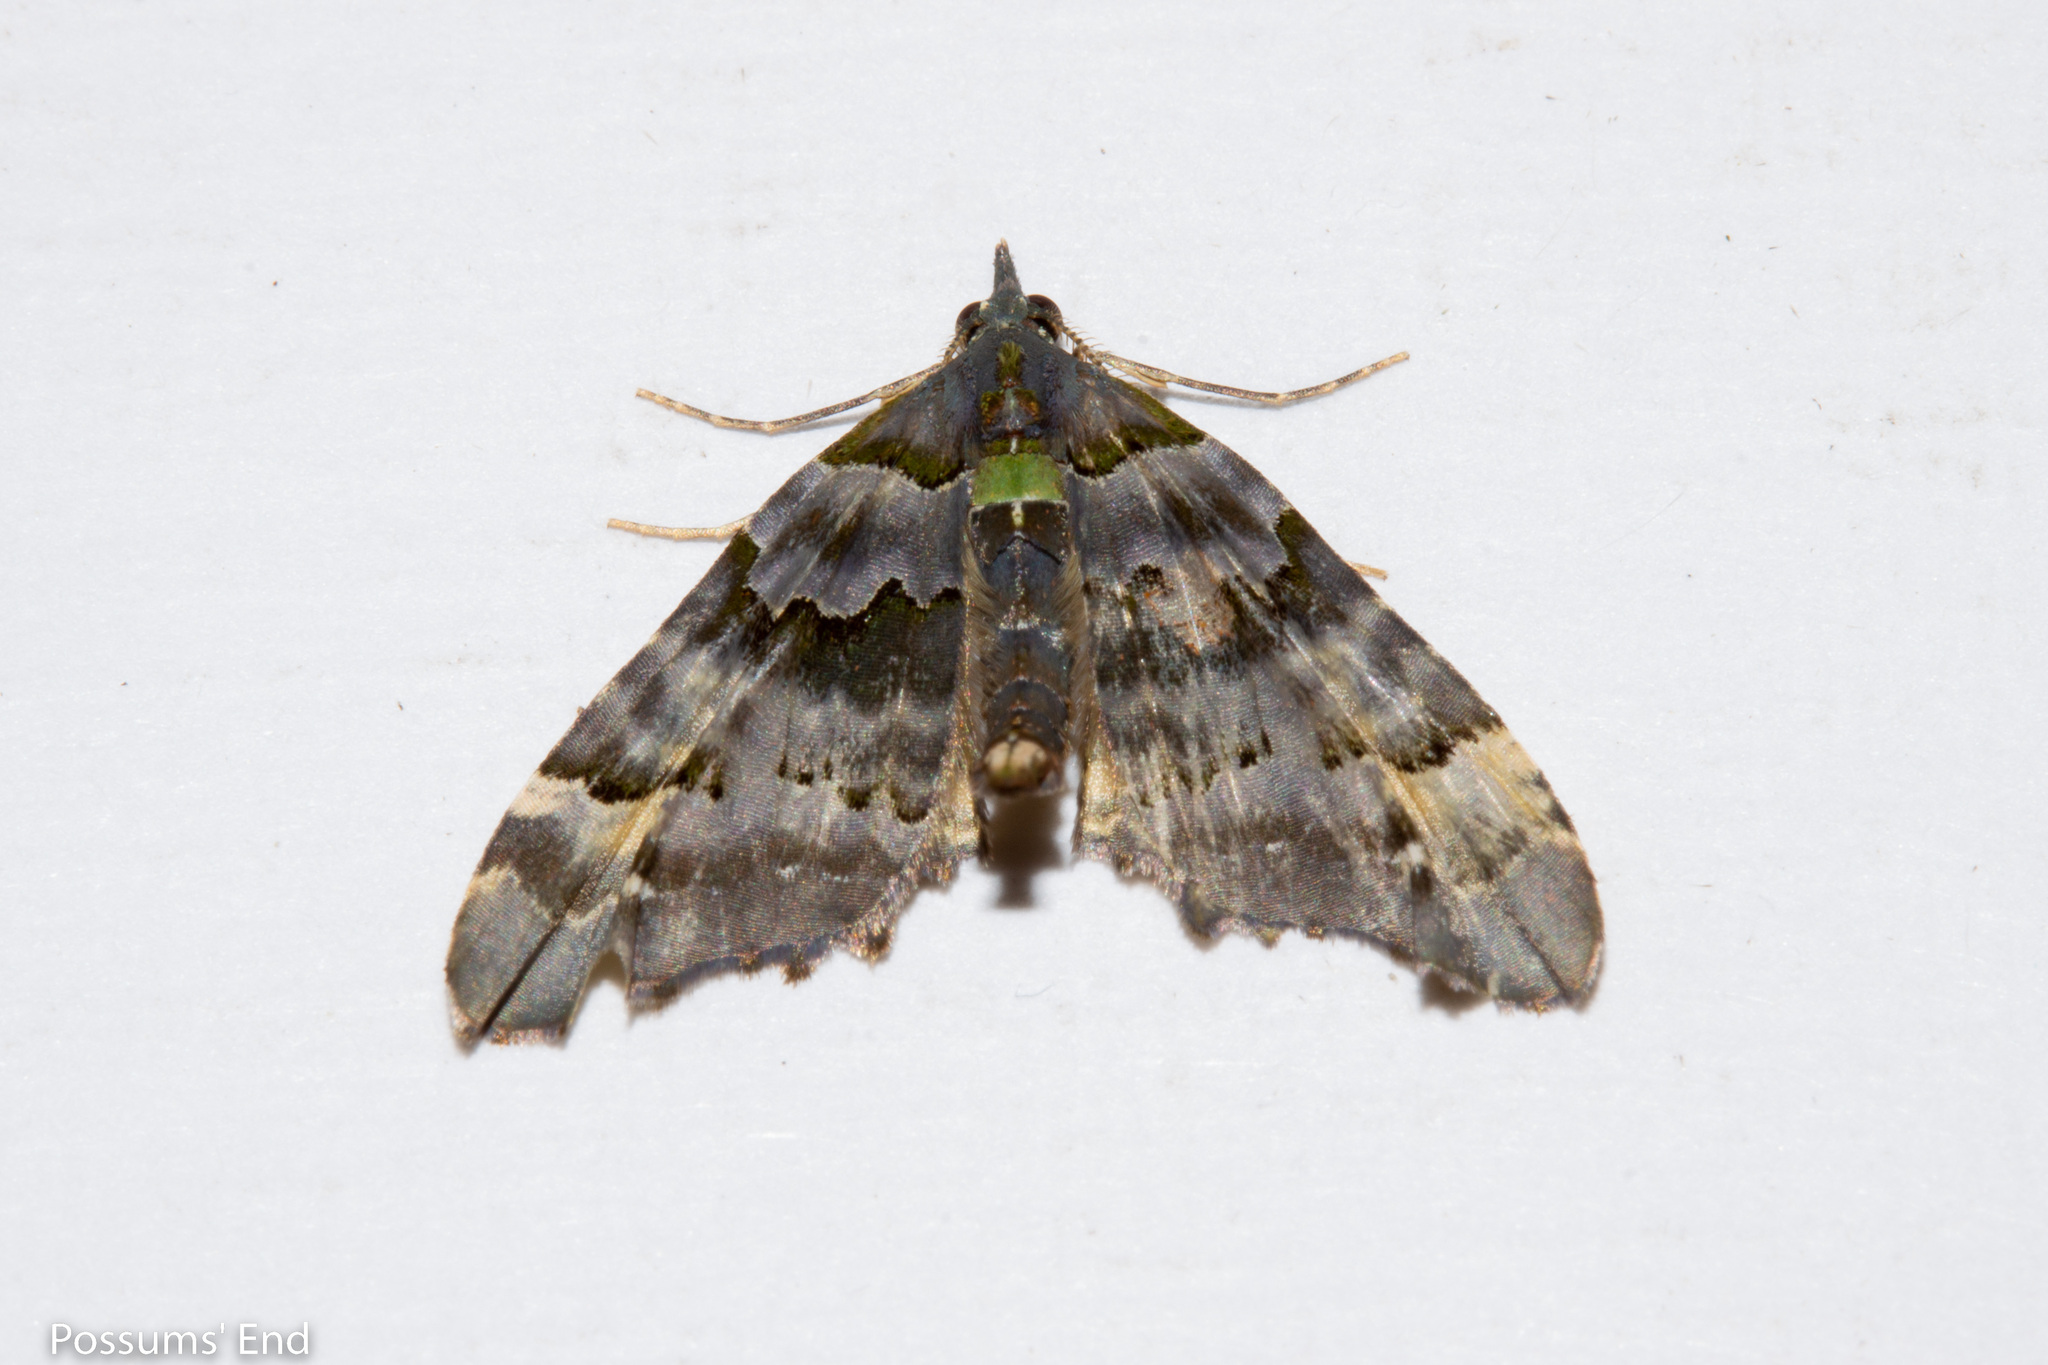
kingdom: Animalia
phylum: Arthropoda
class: Insecta
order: Lepidoptera
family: Geometridae
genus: Elvia
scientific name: Elvia glaucata
